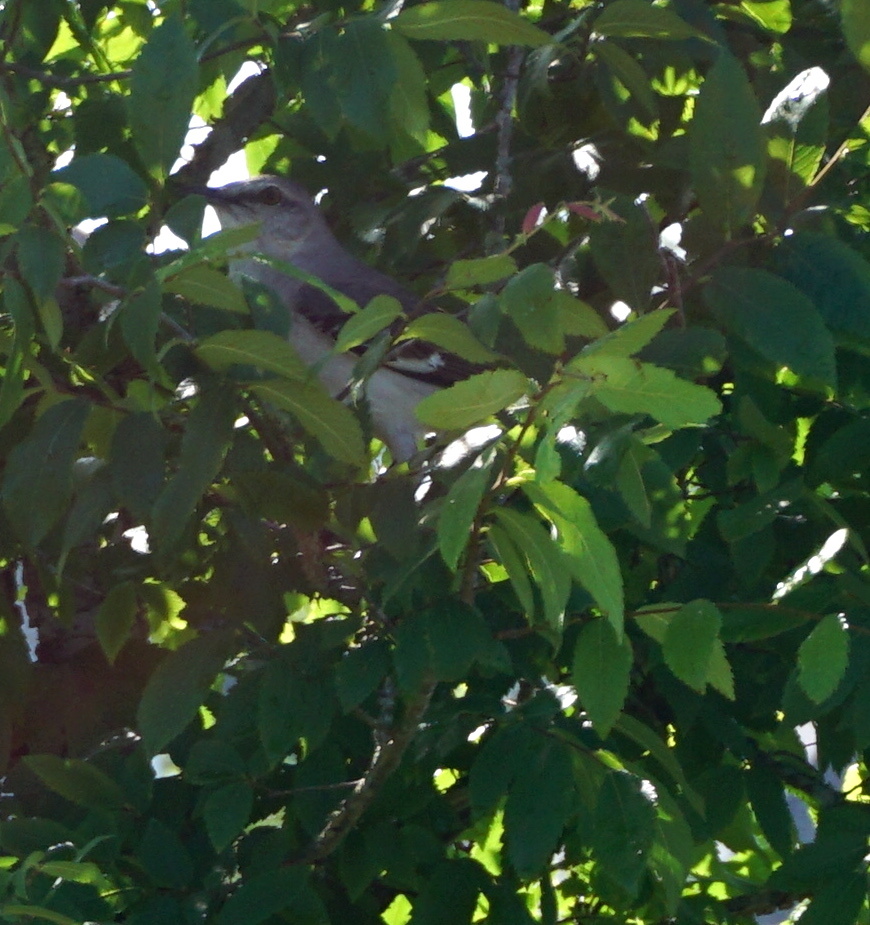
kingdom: Animalia
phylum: Chordata
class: Aves
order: Passeriformes
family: Mimidae
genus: Mimus
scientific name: Mimus polyglottos
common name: Northern mockingbird
